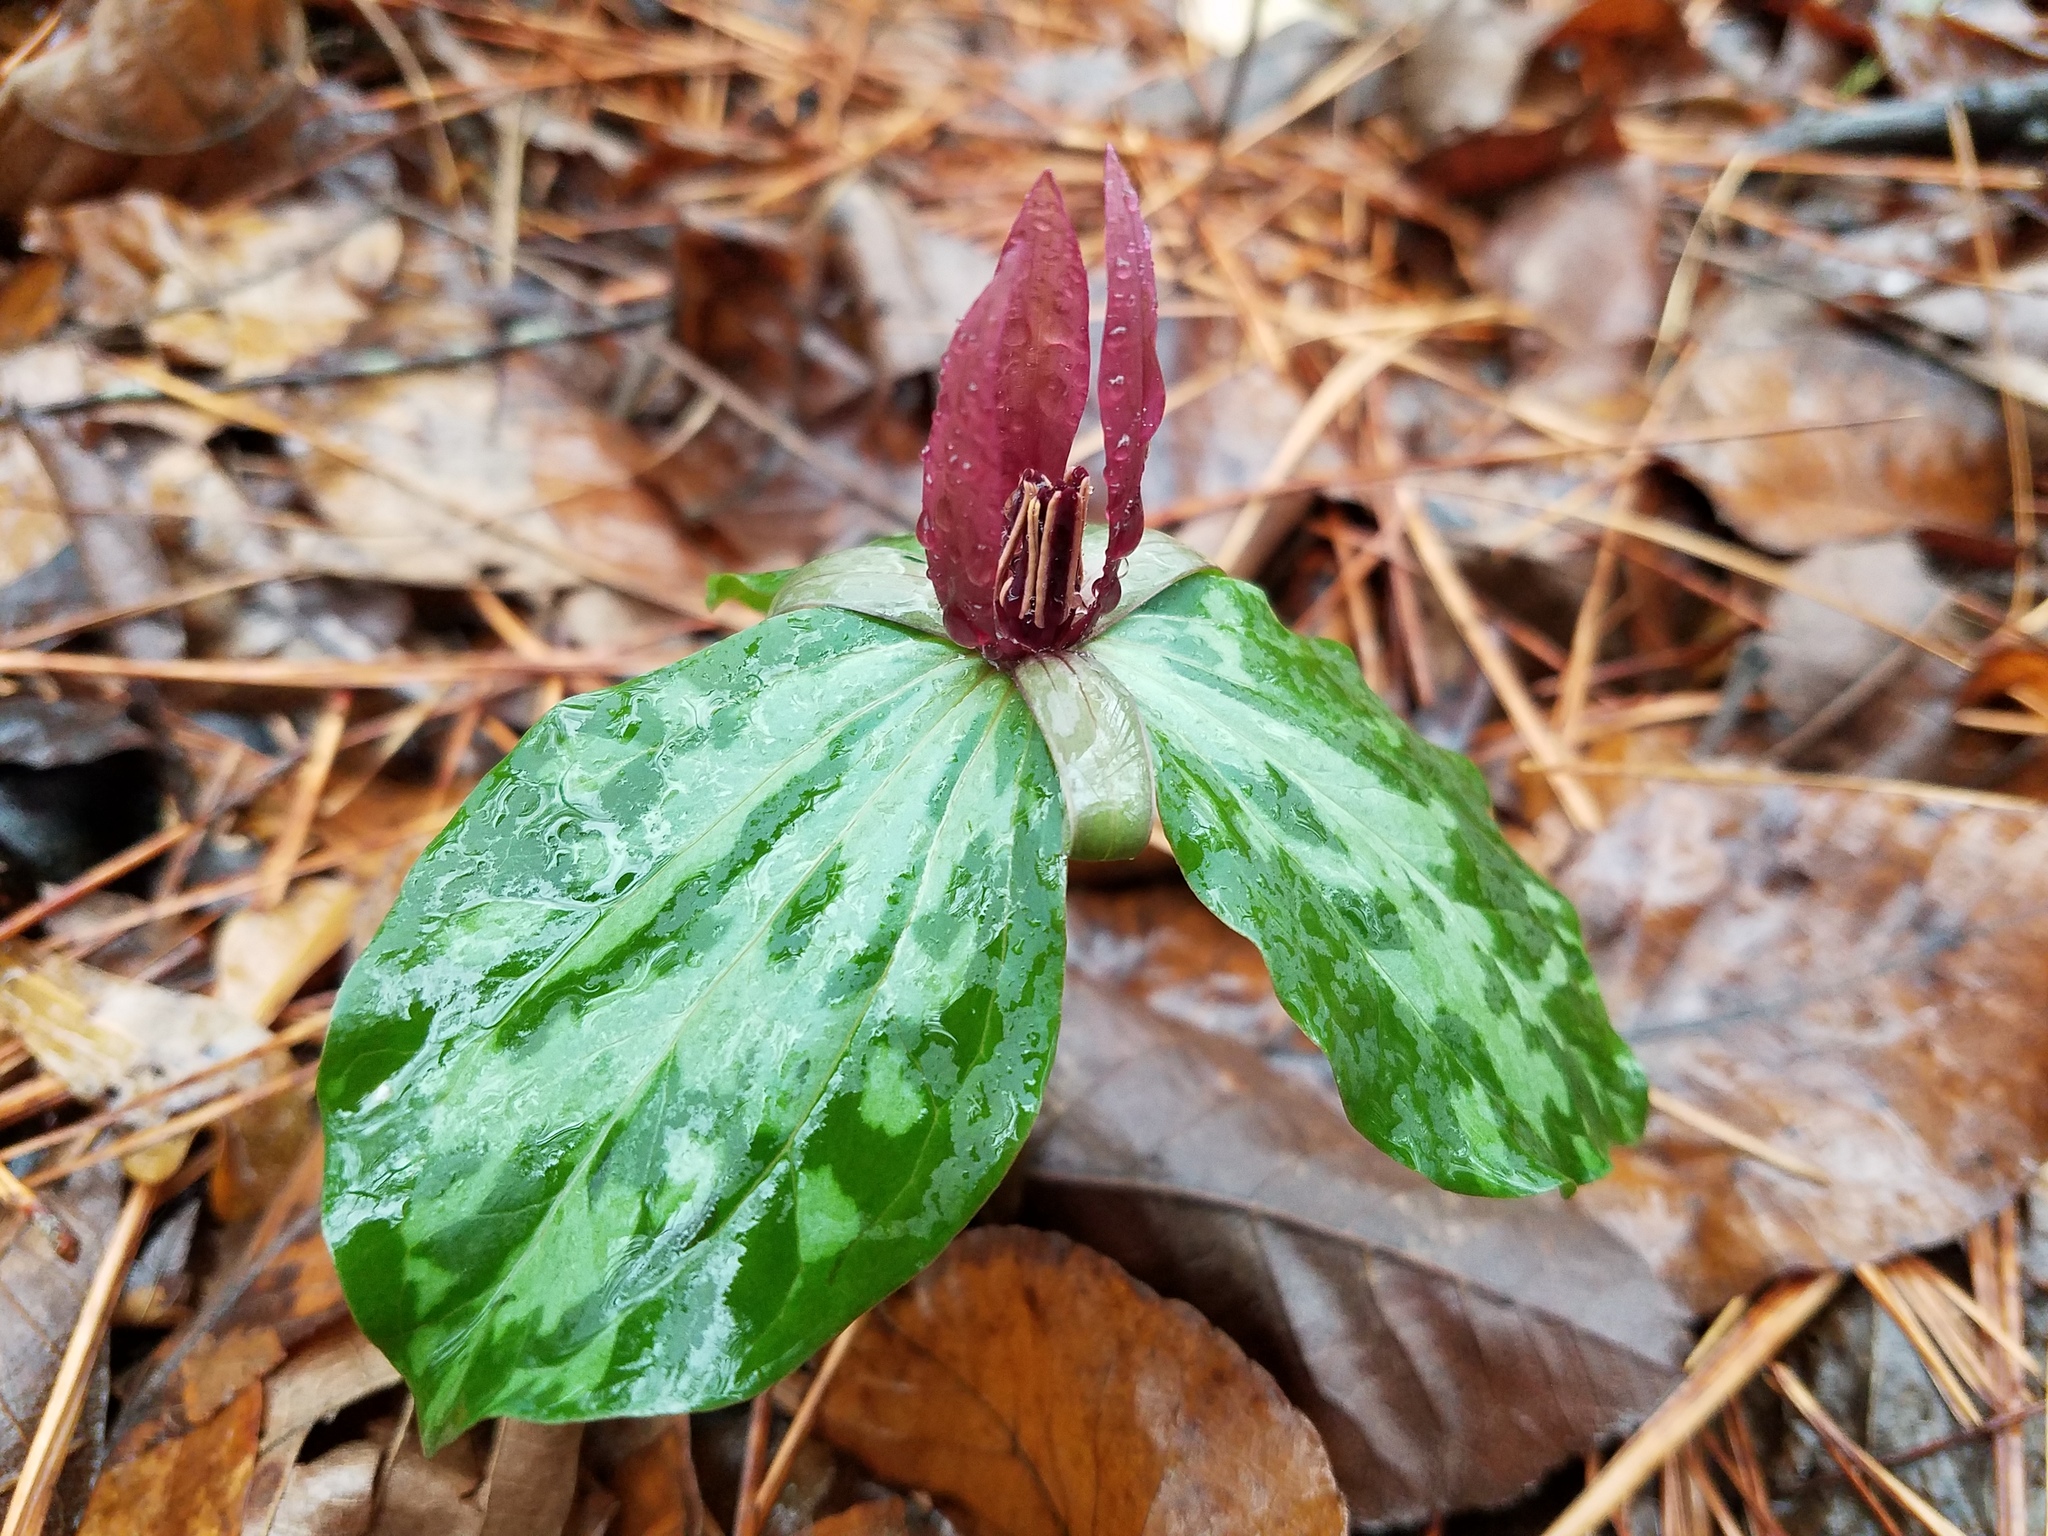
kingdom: Plantae
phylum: Tracheophyta
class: Liliopsida
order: Liliales
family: Melanthiaceae
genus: Trillium
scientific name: Trillium maculatum
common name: Mottled trillium
